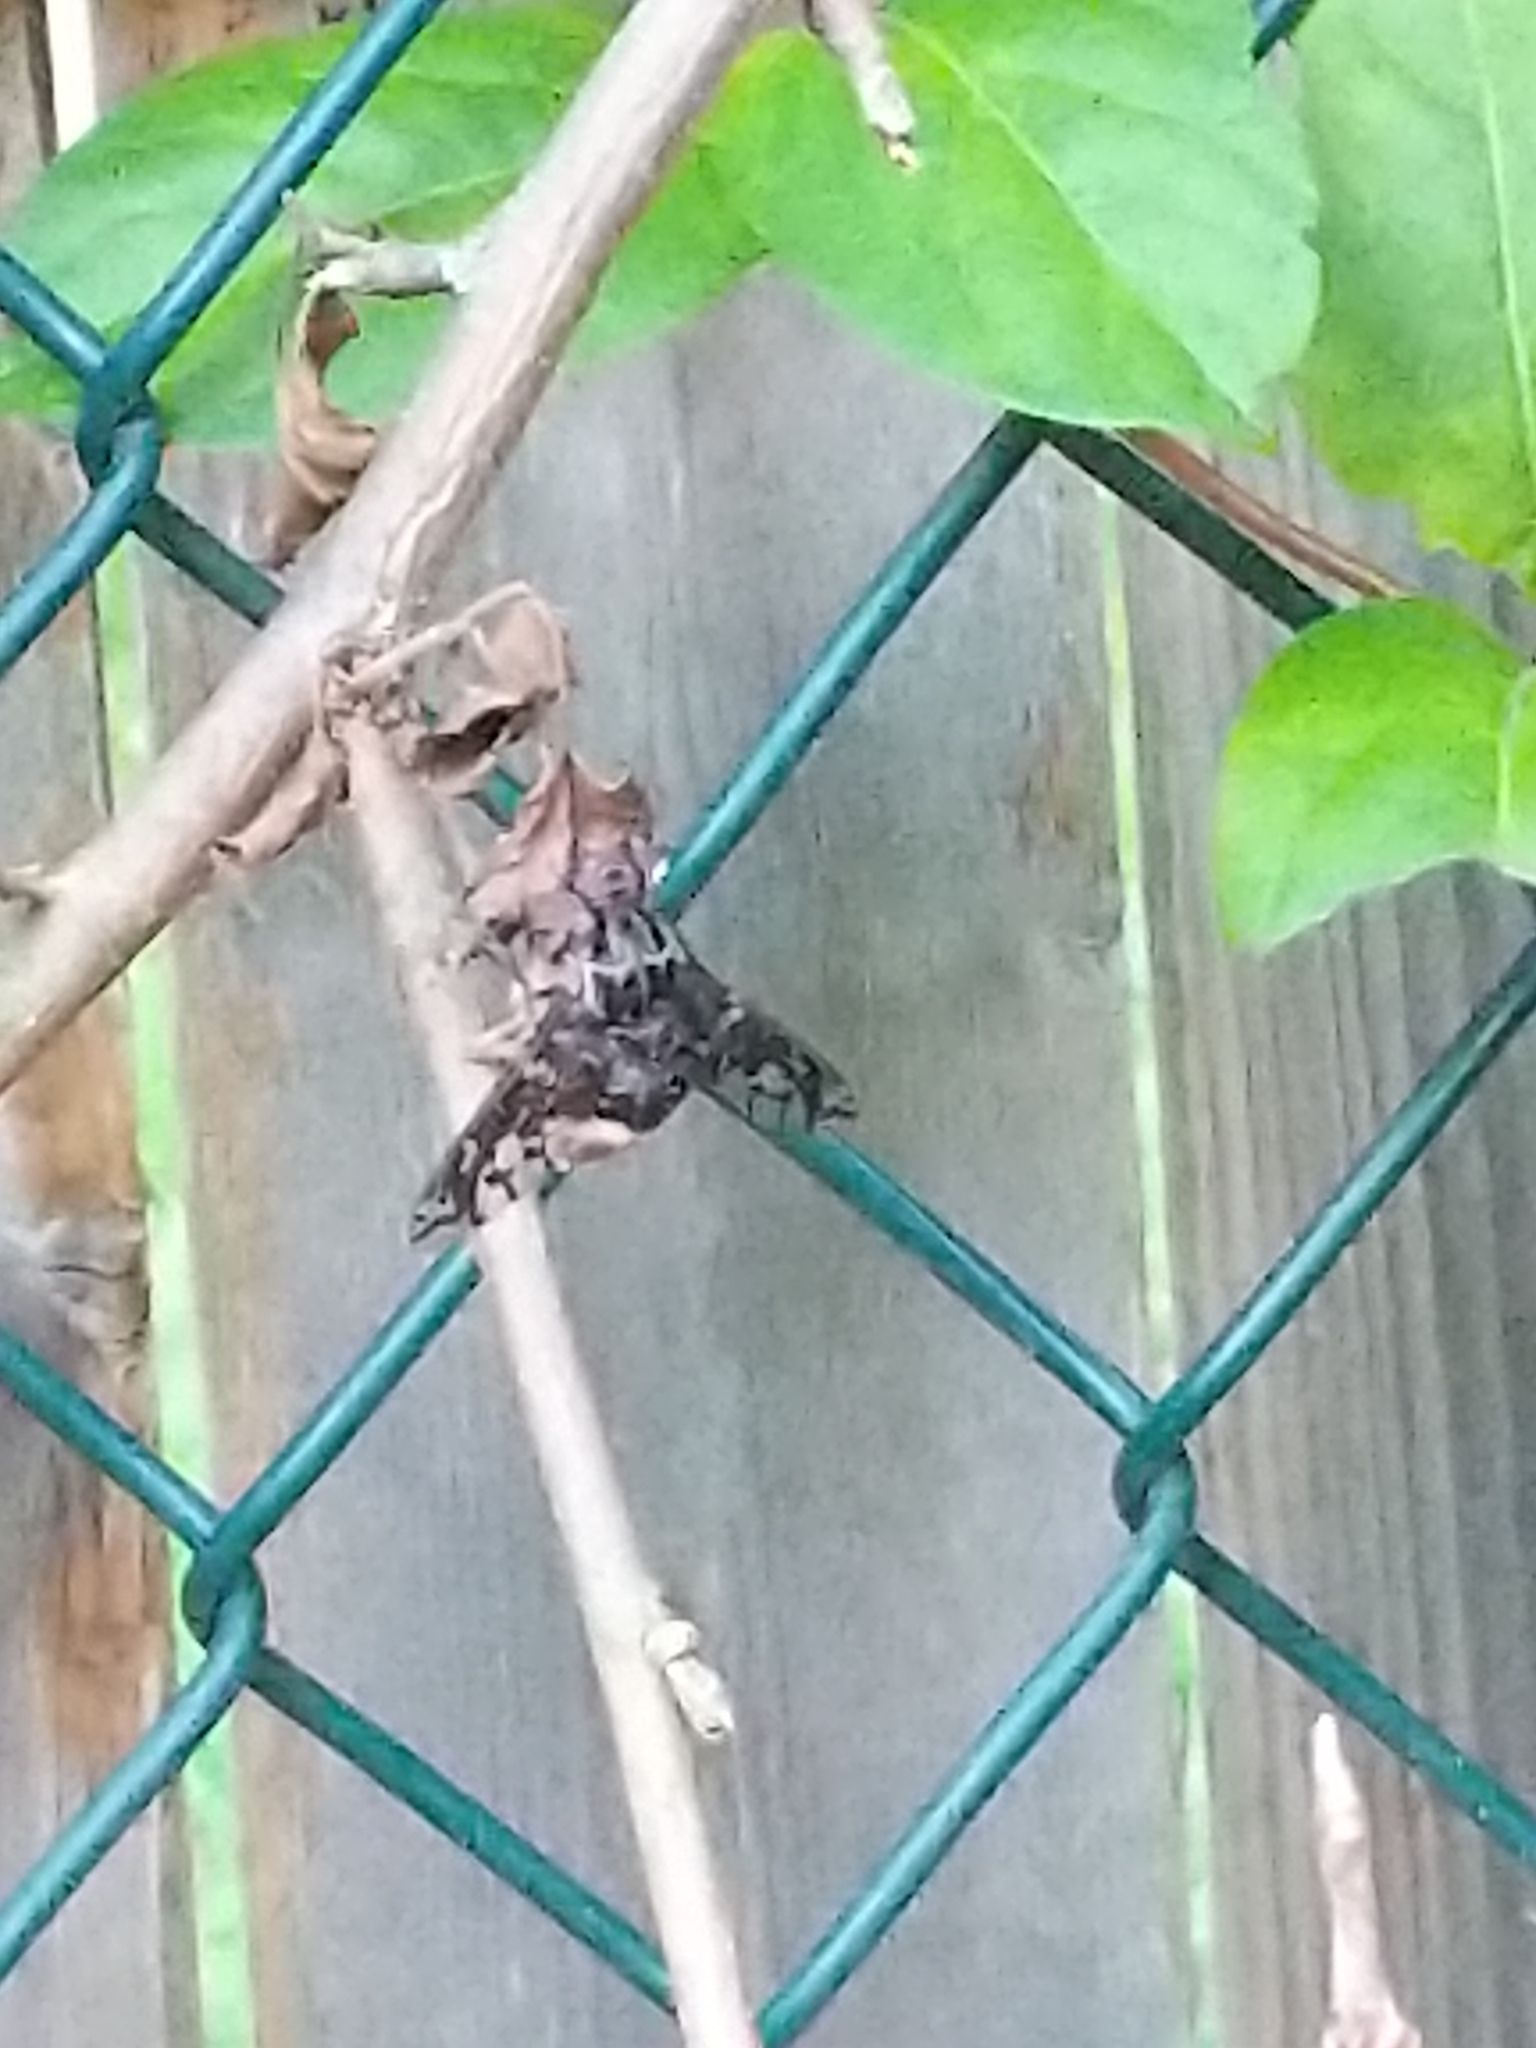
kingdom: Animalia
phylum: Arthropoda
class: Insecta
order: Diptera
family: Bombyliidae
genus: Xenox
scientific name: Xenox tigrinus
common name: Tiger bee fly
